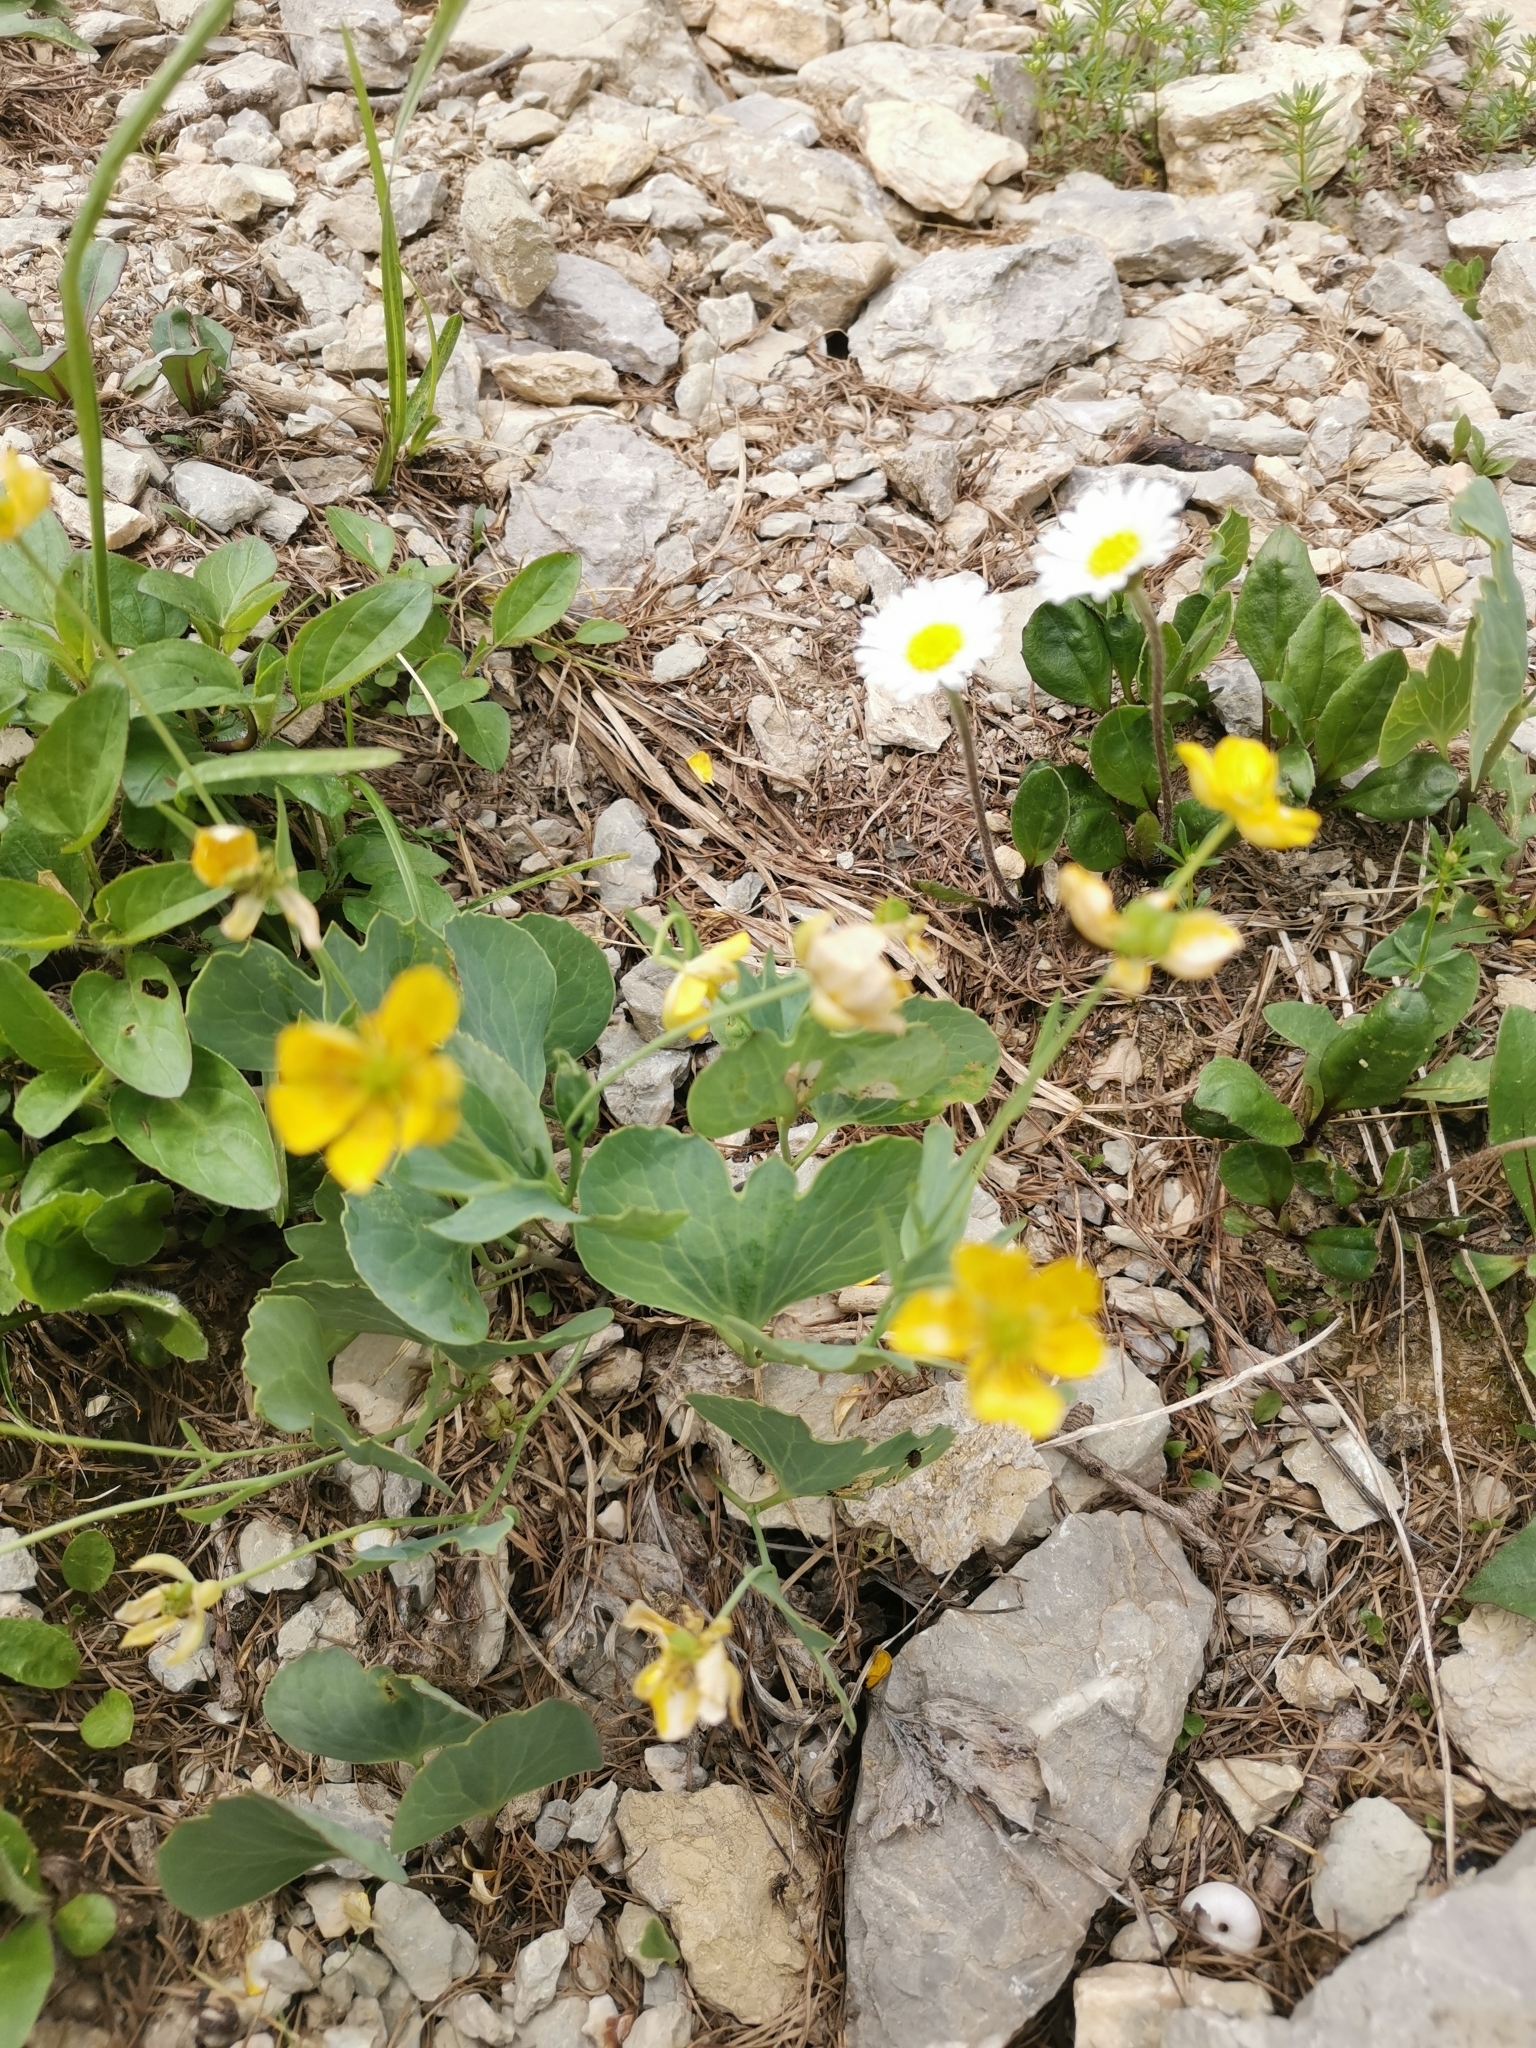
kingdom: Plantae
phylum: Tracheophyta
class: Magnoliopsida
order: Ranunculales
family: Ranunculaceae
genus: Ranunculus
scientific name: Ranunculus hybridus
